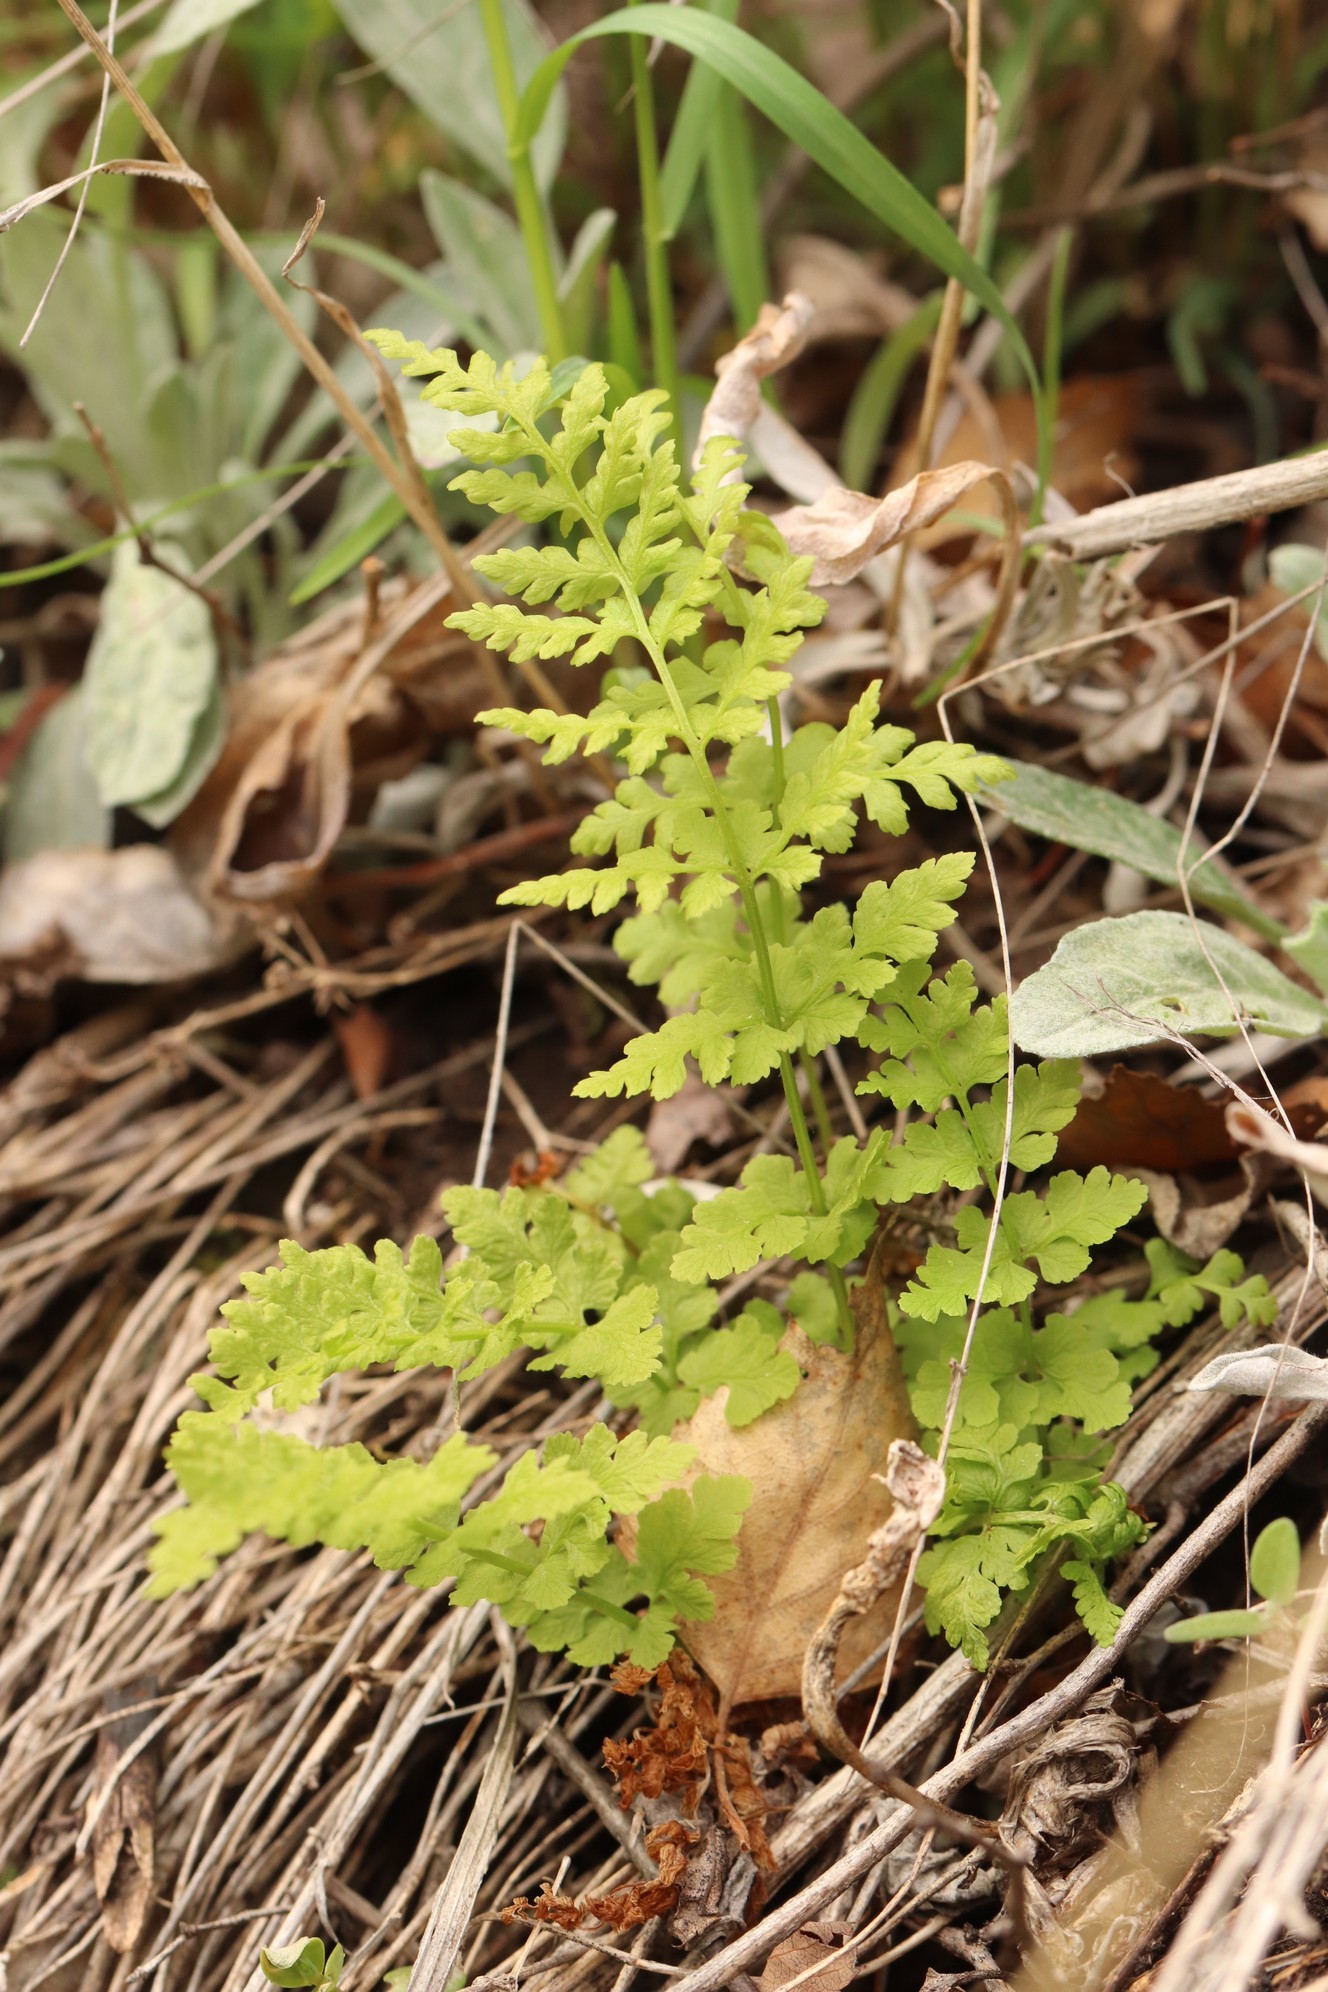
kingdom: Plantae
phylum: Tracheophyta
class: Polypodiopsida
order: Polypodiales
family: Cystopteridaceae
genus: Cystopteris
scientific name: Cystopteris fragilis
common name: Brittle bladder fern
